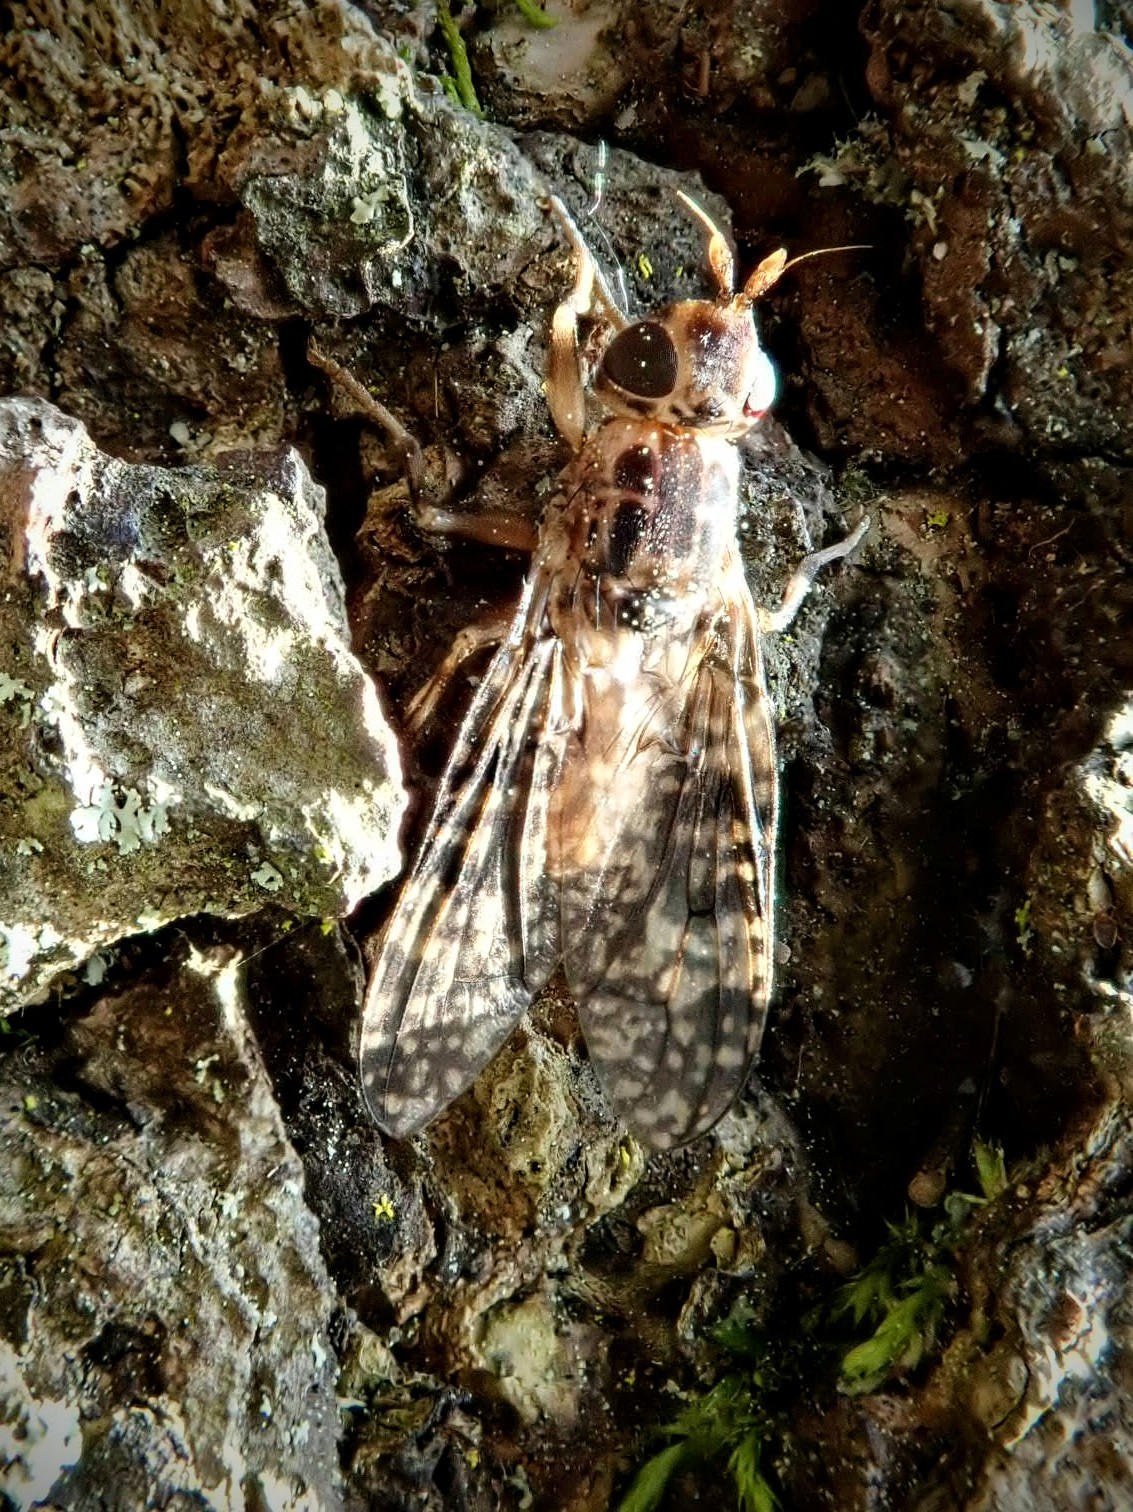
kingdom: Animalia
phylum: Arthropoda
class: Insecta
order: Diptera
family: Pyrgotidae
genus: Pyrgota
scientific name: Pyrgota valida
